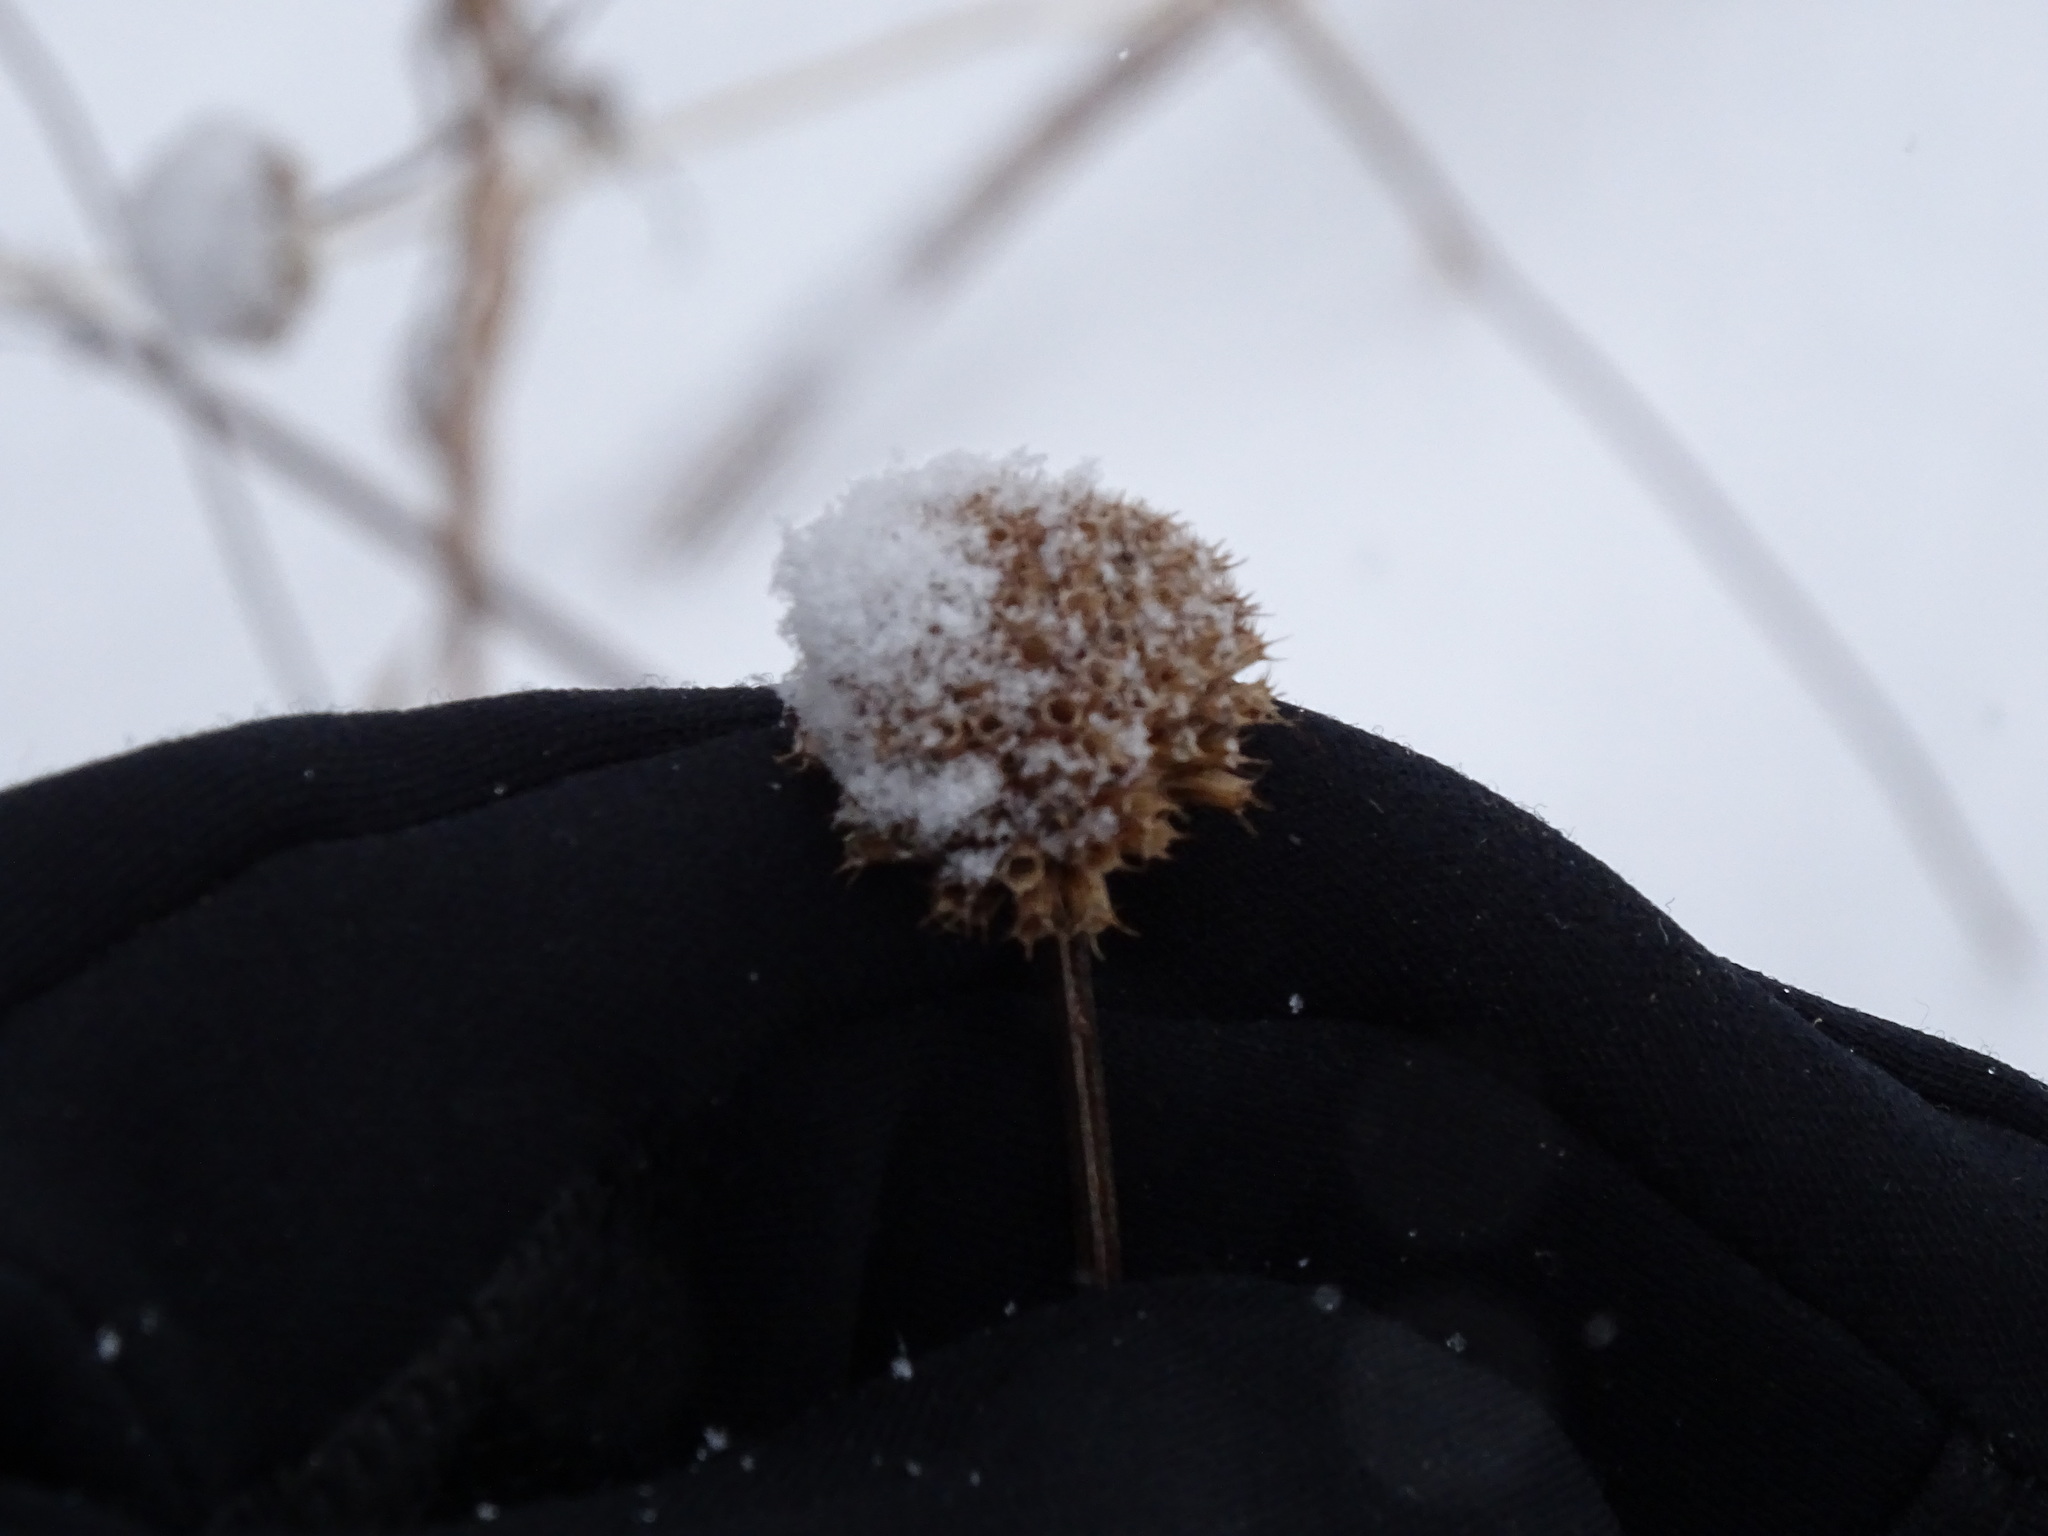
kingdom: Plantae
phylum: Tracheophyta
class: Magnoliopsida
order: Lamiales
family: Lamiaceae
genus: Monarda
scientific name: Monarda fistulosa
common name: Purple beebalm
